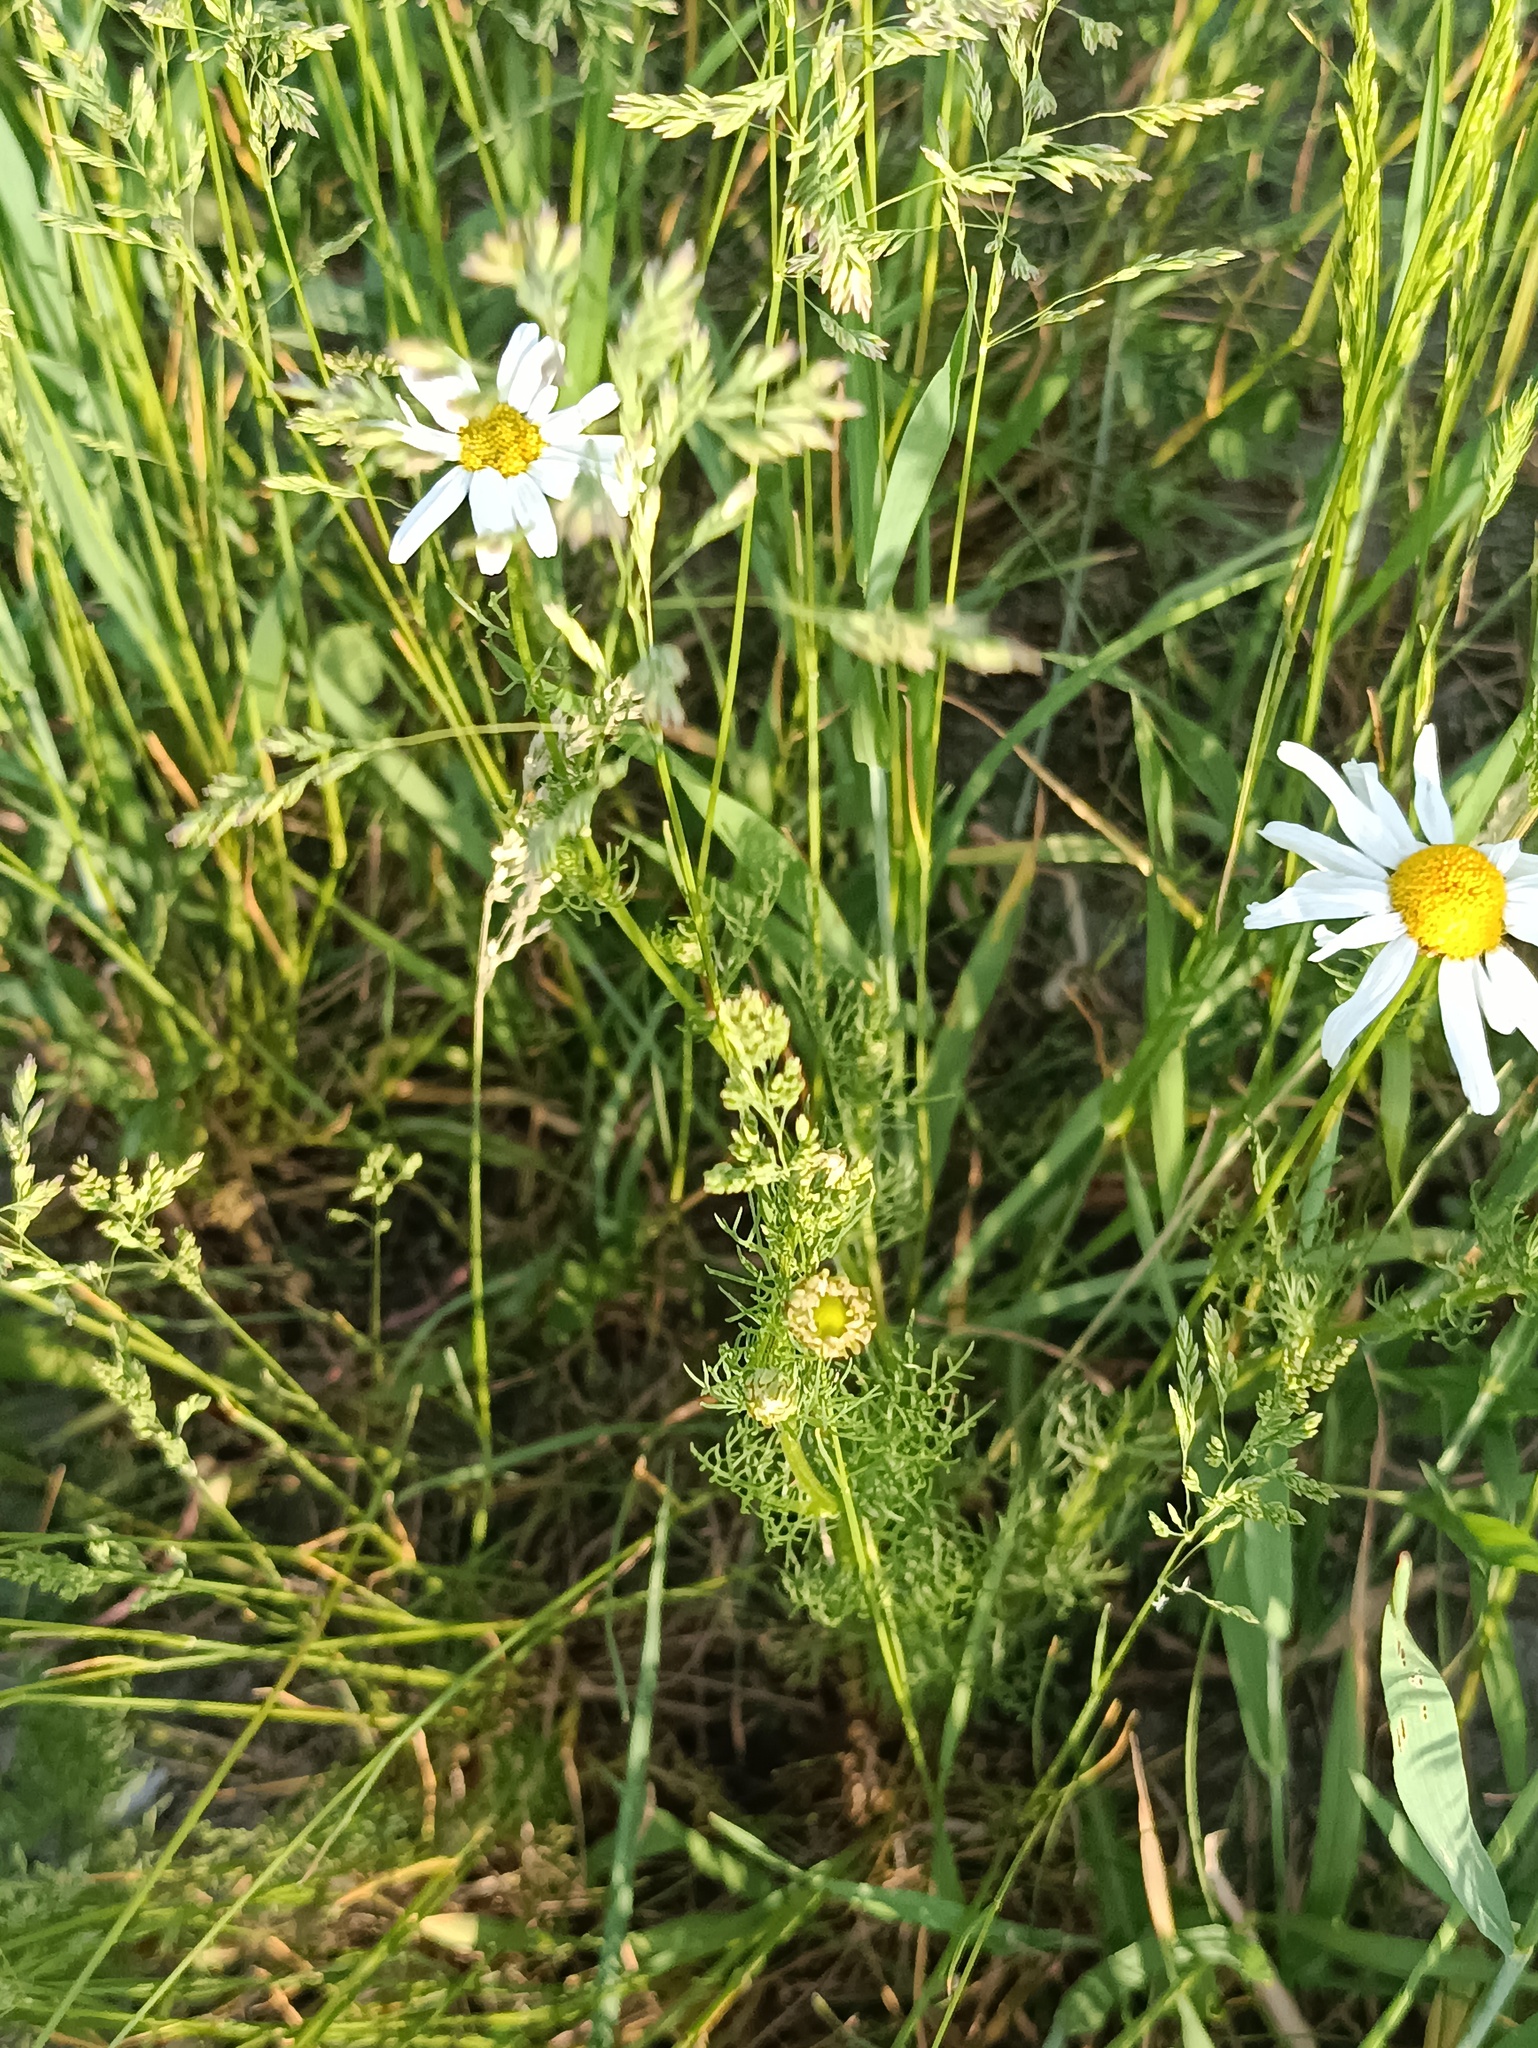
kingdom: Plantae
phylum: Tracheophyta
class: Magnoliopsida
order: Asterales
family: Asteraceae
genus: Tripleurospermum
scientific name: Tripleurospermum inodorum
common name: Scentless mayweed
